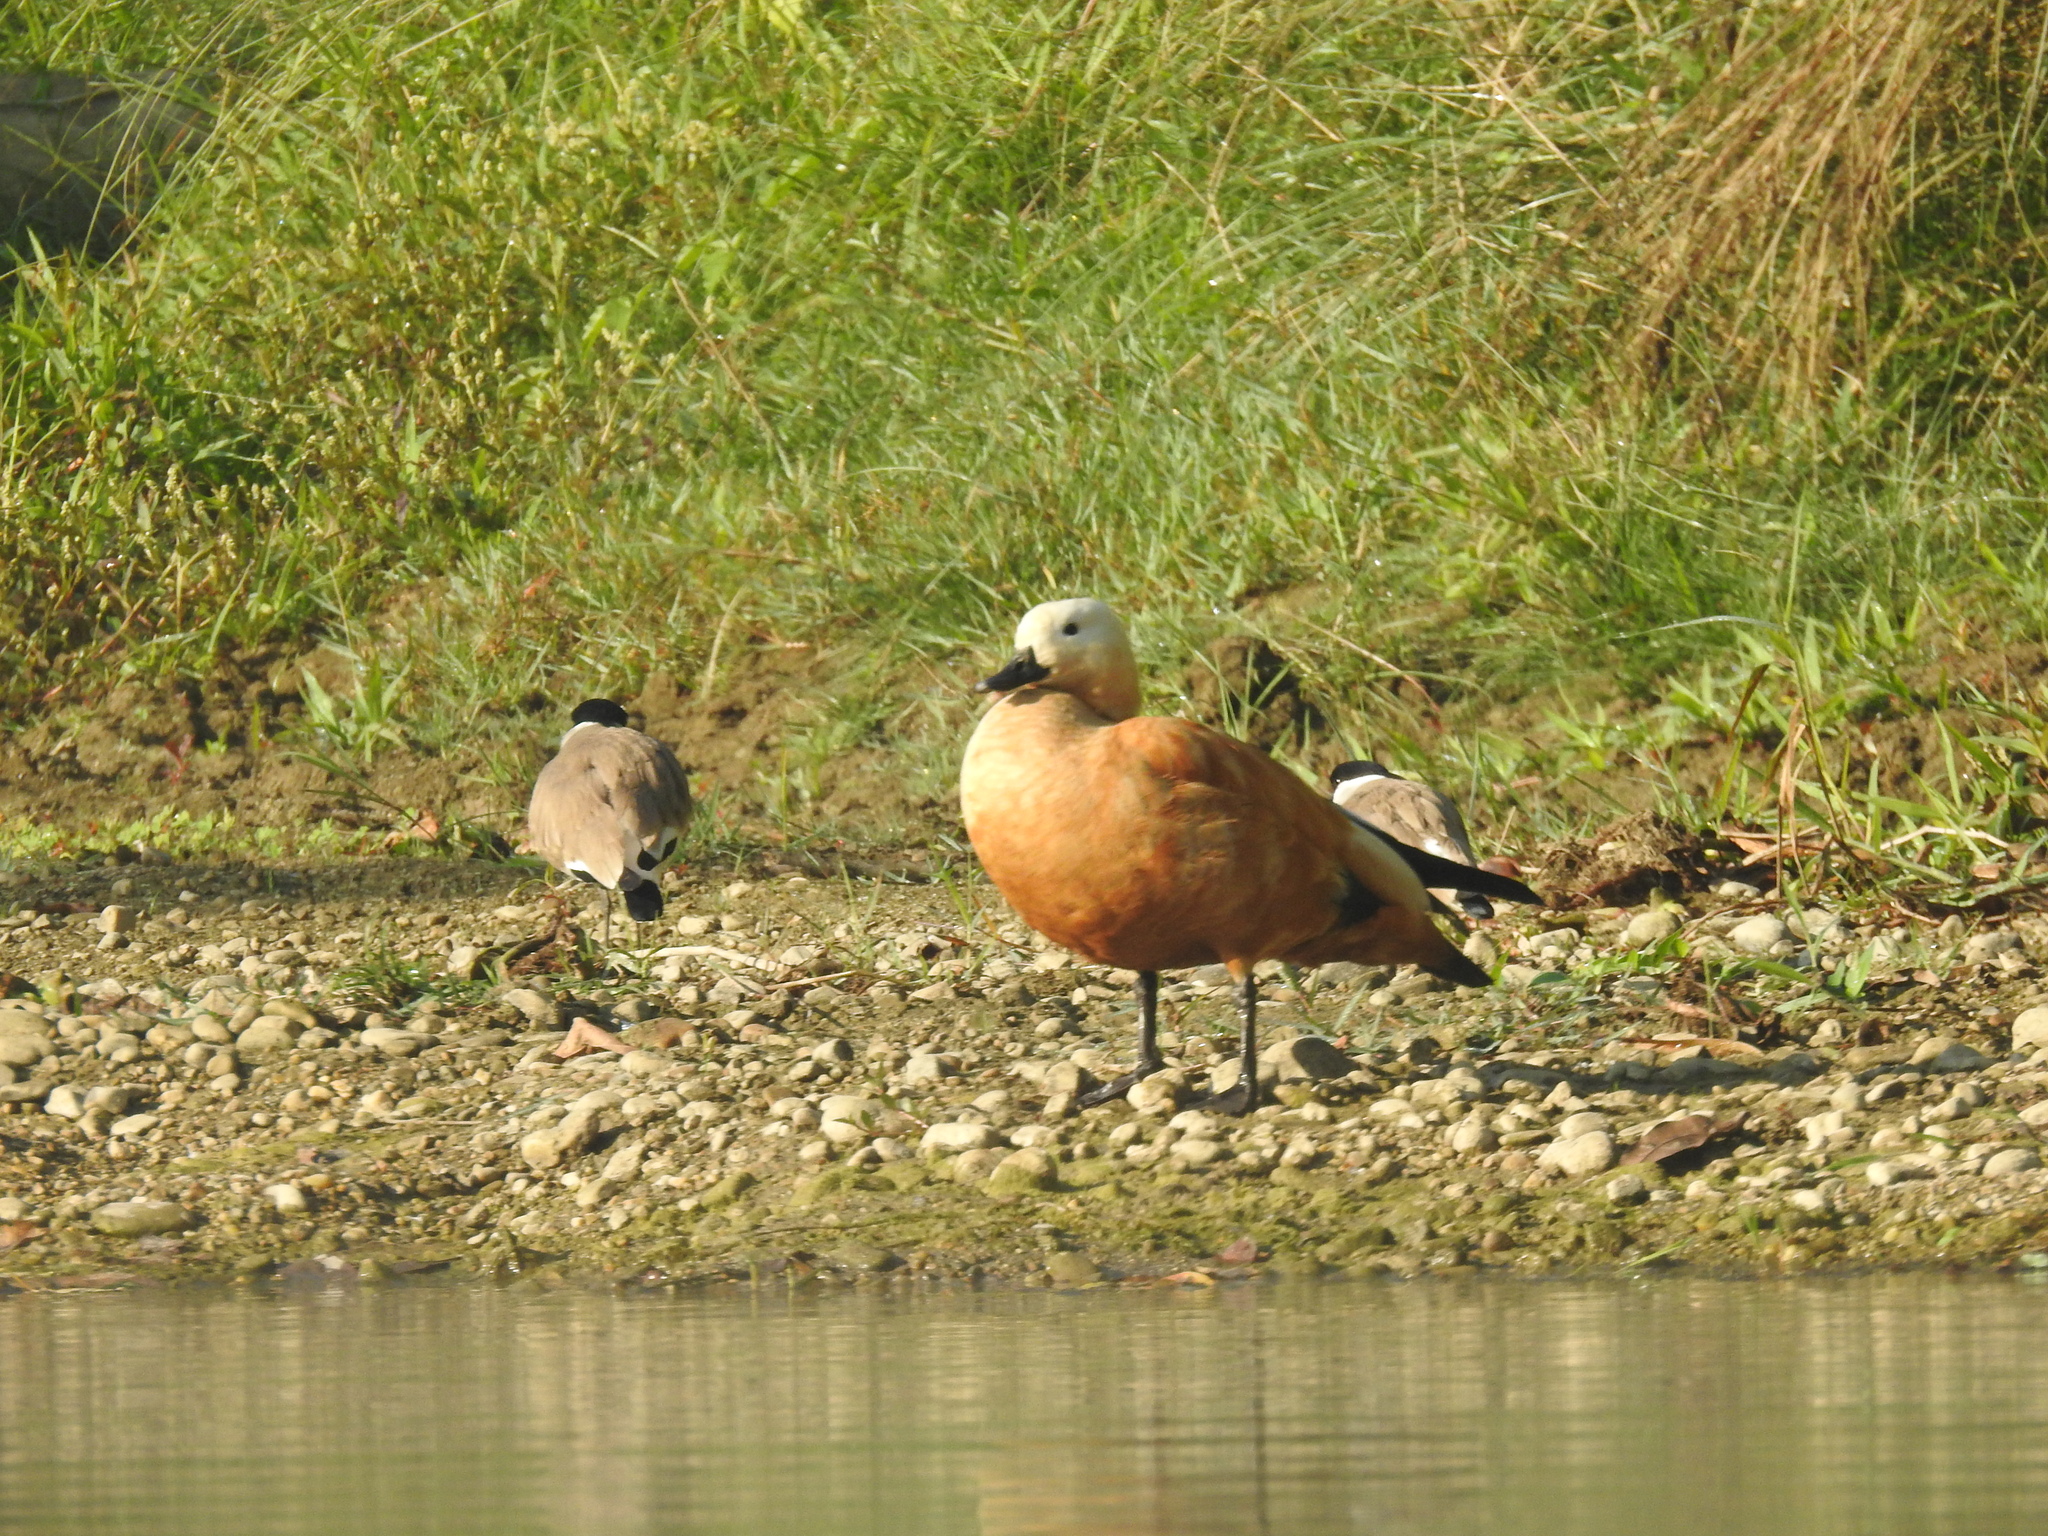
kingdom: Animalia
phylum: Chordata
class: Aves
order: Anseriformes
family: Anatidae
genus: Tadorna
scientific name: Tadorna ferruginea
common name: Ruddy shelduck
